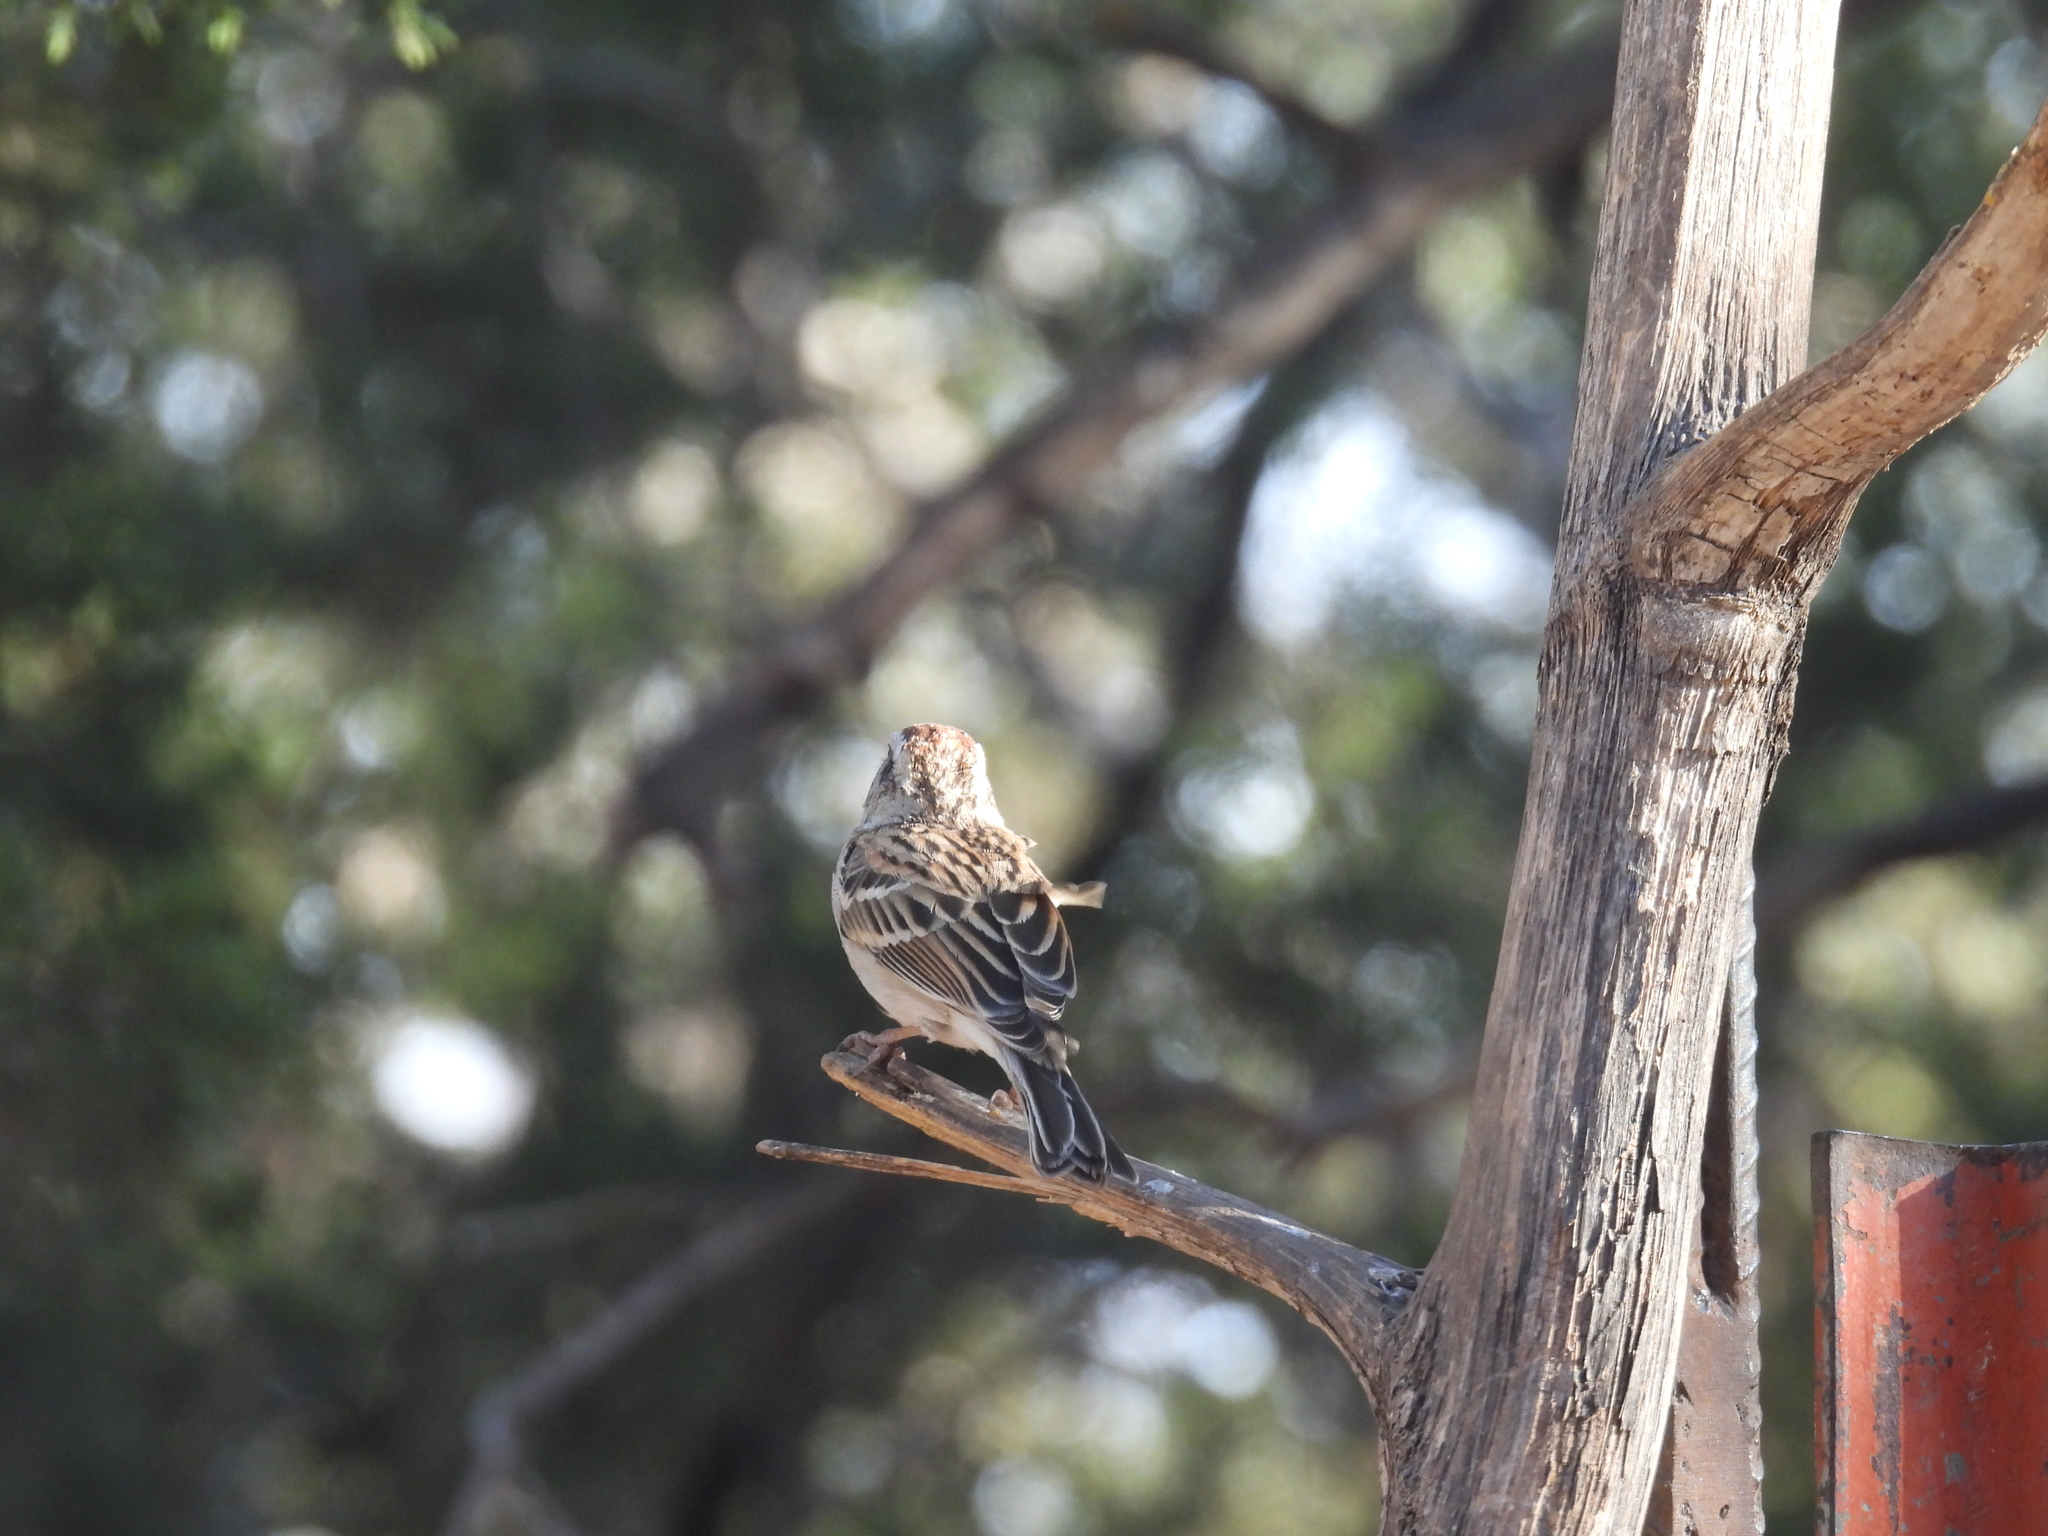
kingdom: Animalia
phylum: Chordata
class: Aves
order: Passeriformes
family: Passerellidae
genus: Spizella
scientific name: Spizella passerina
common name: Chipping sparrow
